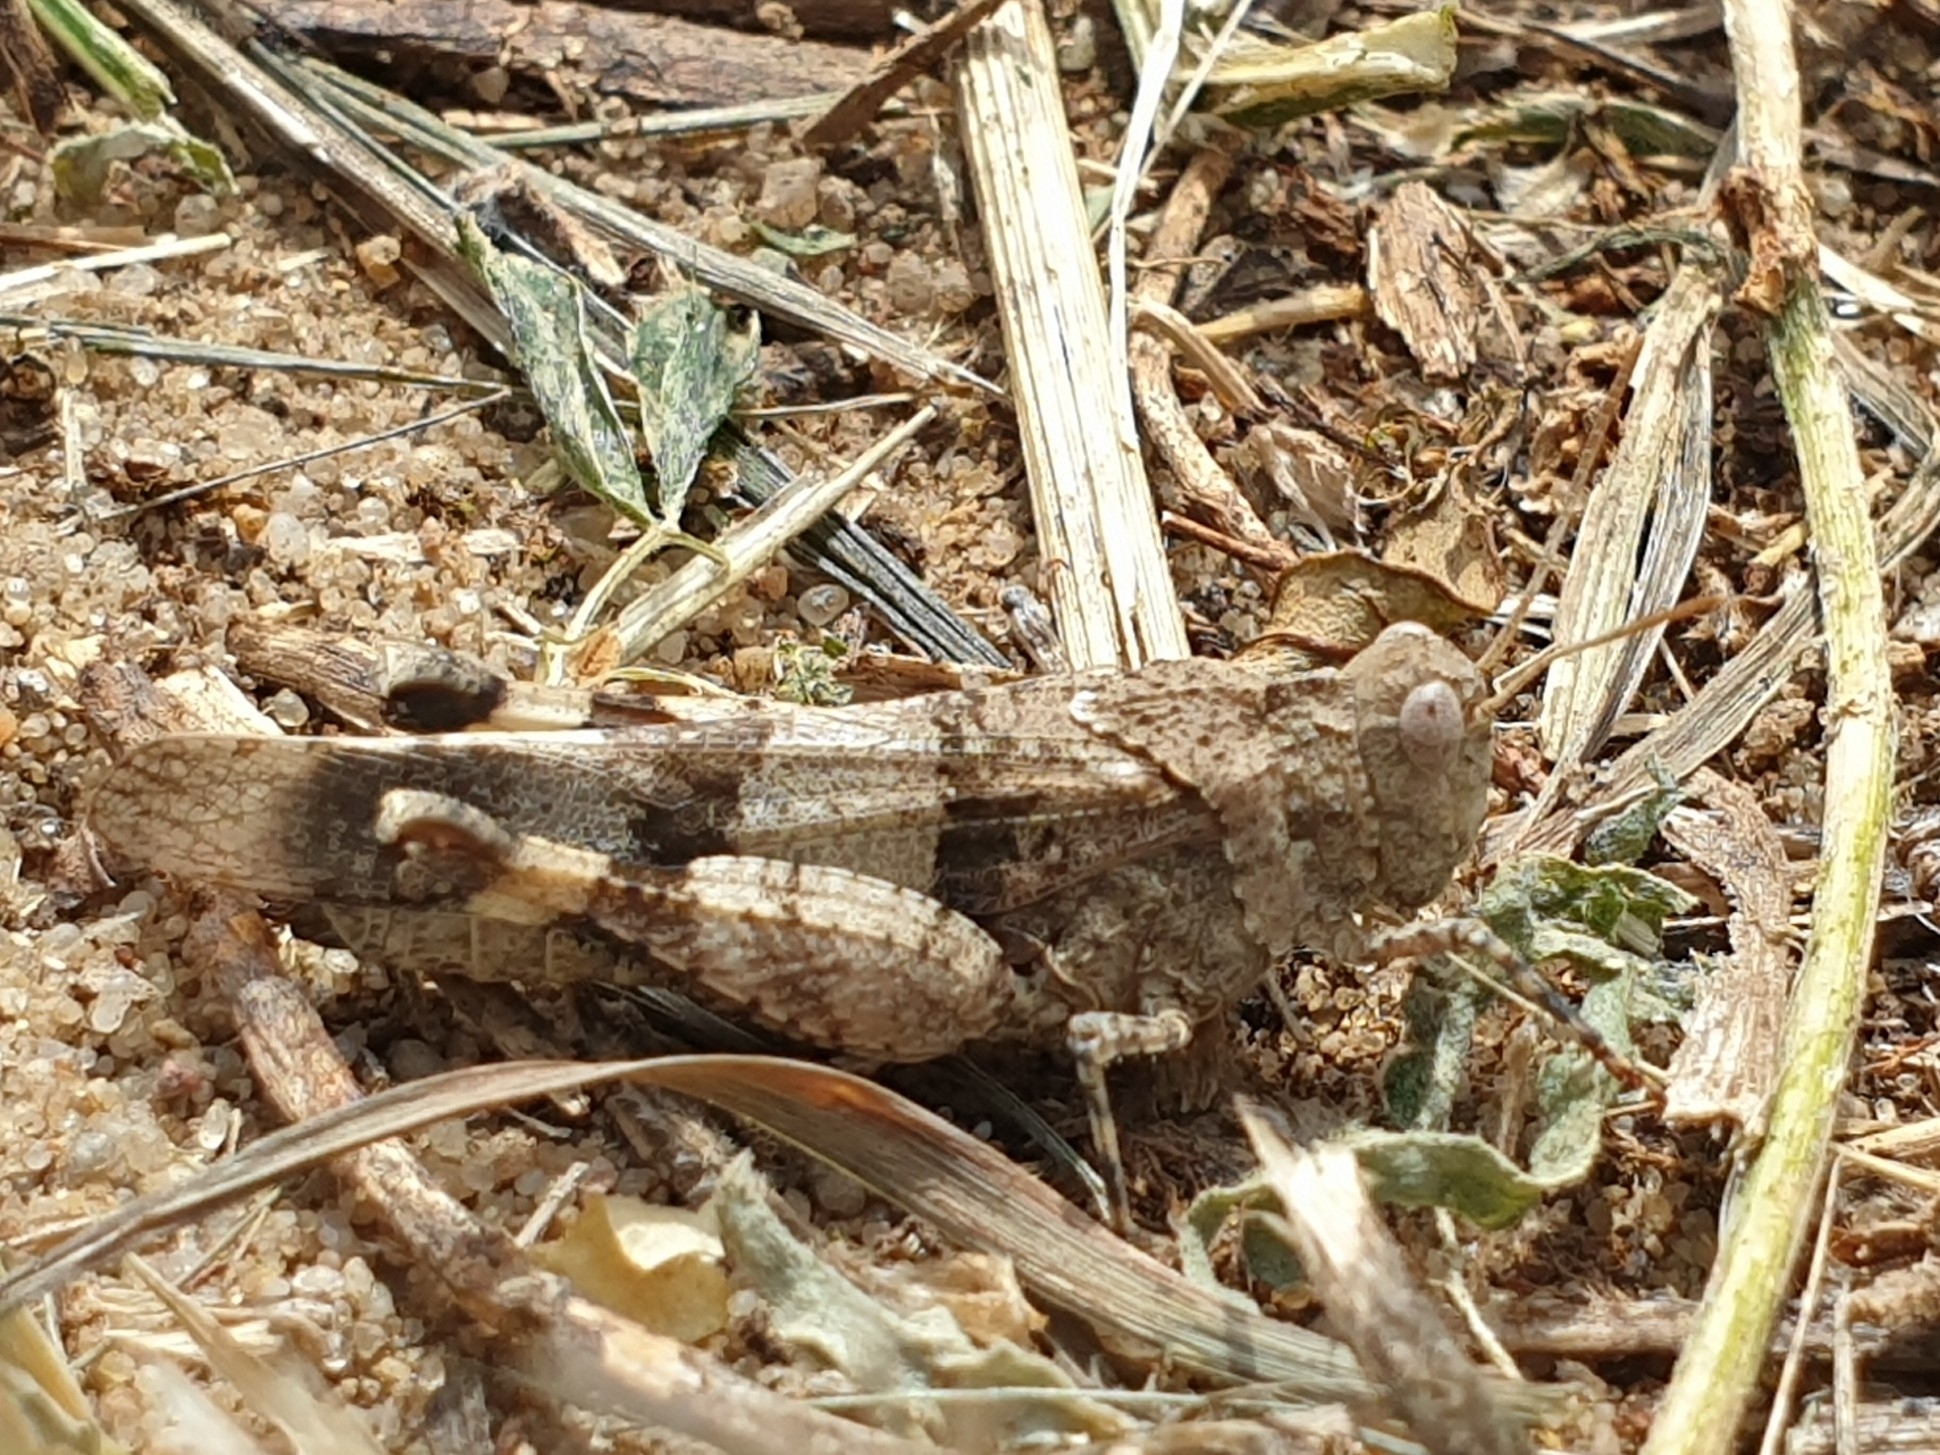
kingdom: Animalia
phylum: Arthropoda
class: Insecta
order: Orthoptera
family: Acrididae
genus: Oedipoda
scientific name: Oedipoda caerulescens
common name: Blue-winged grasshopper
